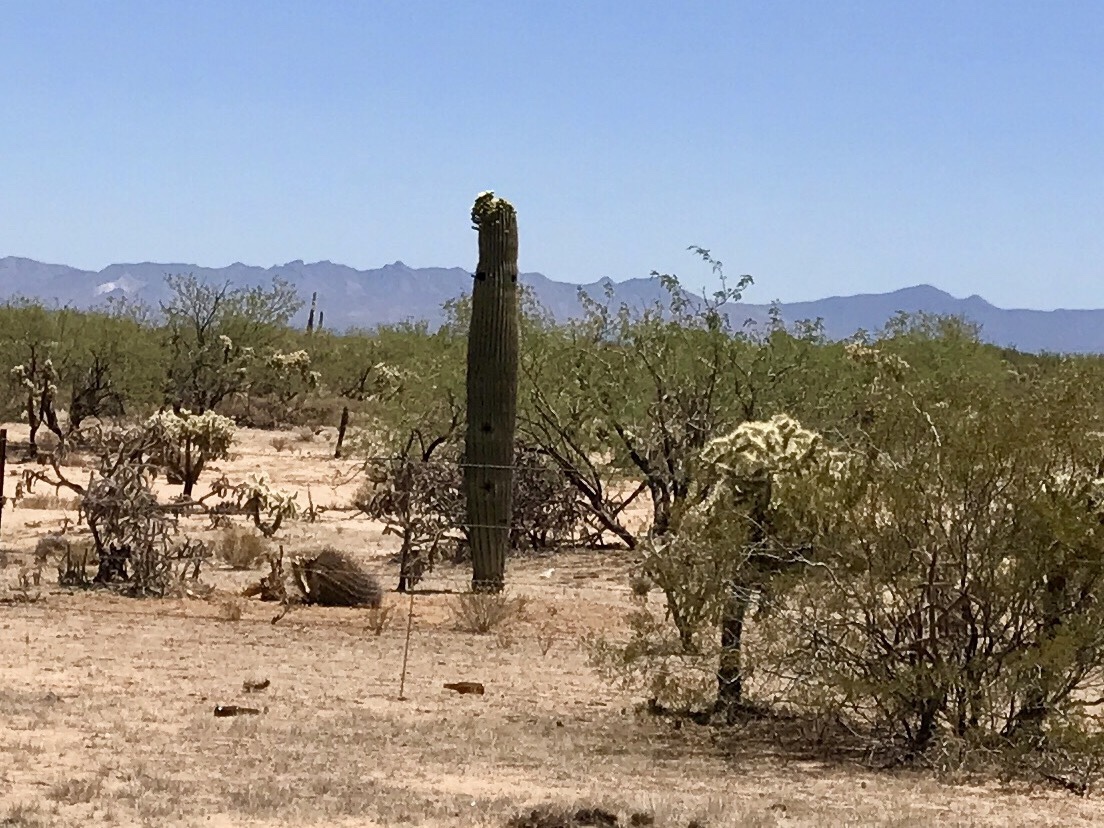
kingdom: Plantae
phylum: Tracheophyta
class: Magnoliopsida
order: Caryophyllales
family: Cactaceae
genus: Carnegiea
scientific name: Carnegiea gigantea
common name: Saguaro
